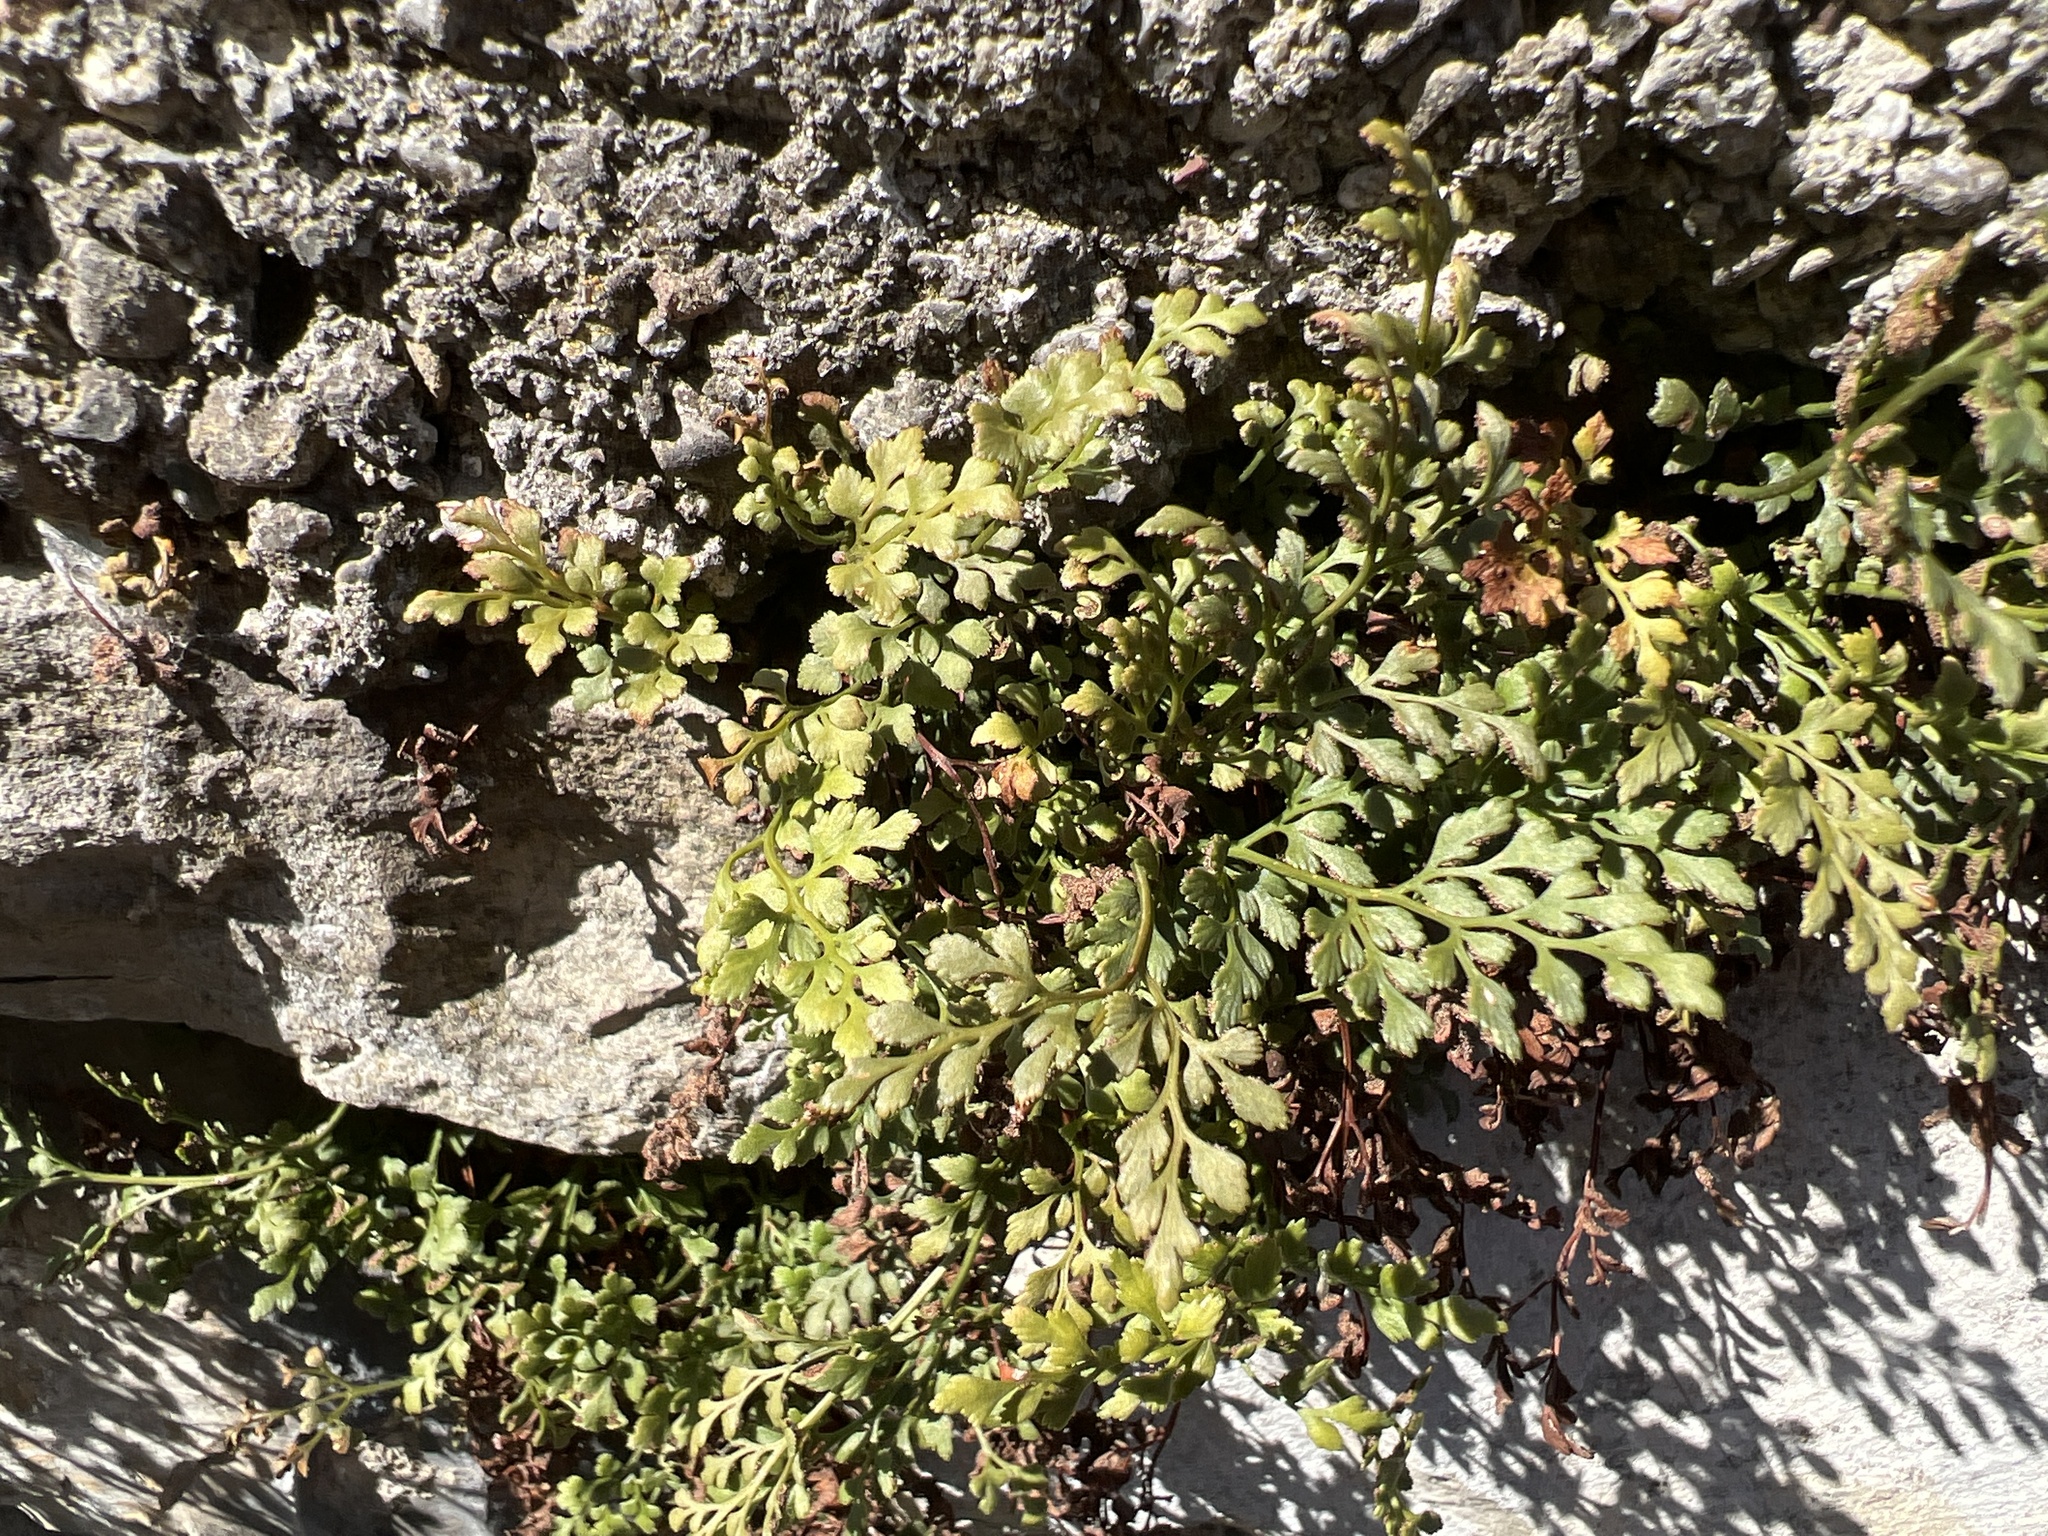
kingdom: Plantae
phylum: Tracheophyta
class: Polypodiopsida
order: Polypodiales
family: Aspleniaceae
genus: Asplenium
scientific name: Asplenium ruta-muraria
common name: Wall-rue
